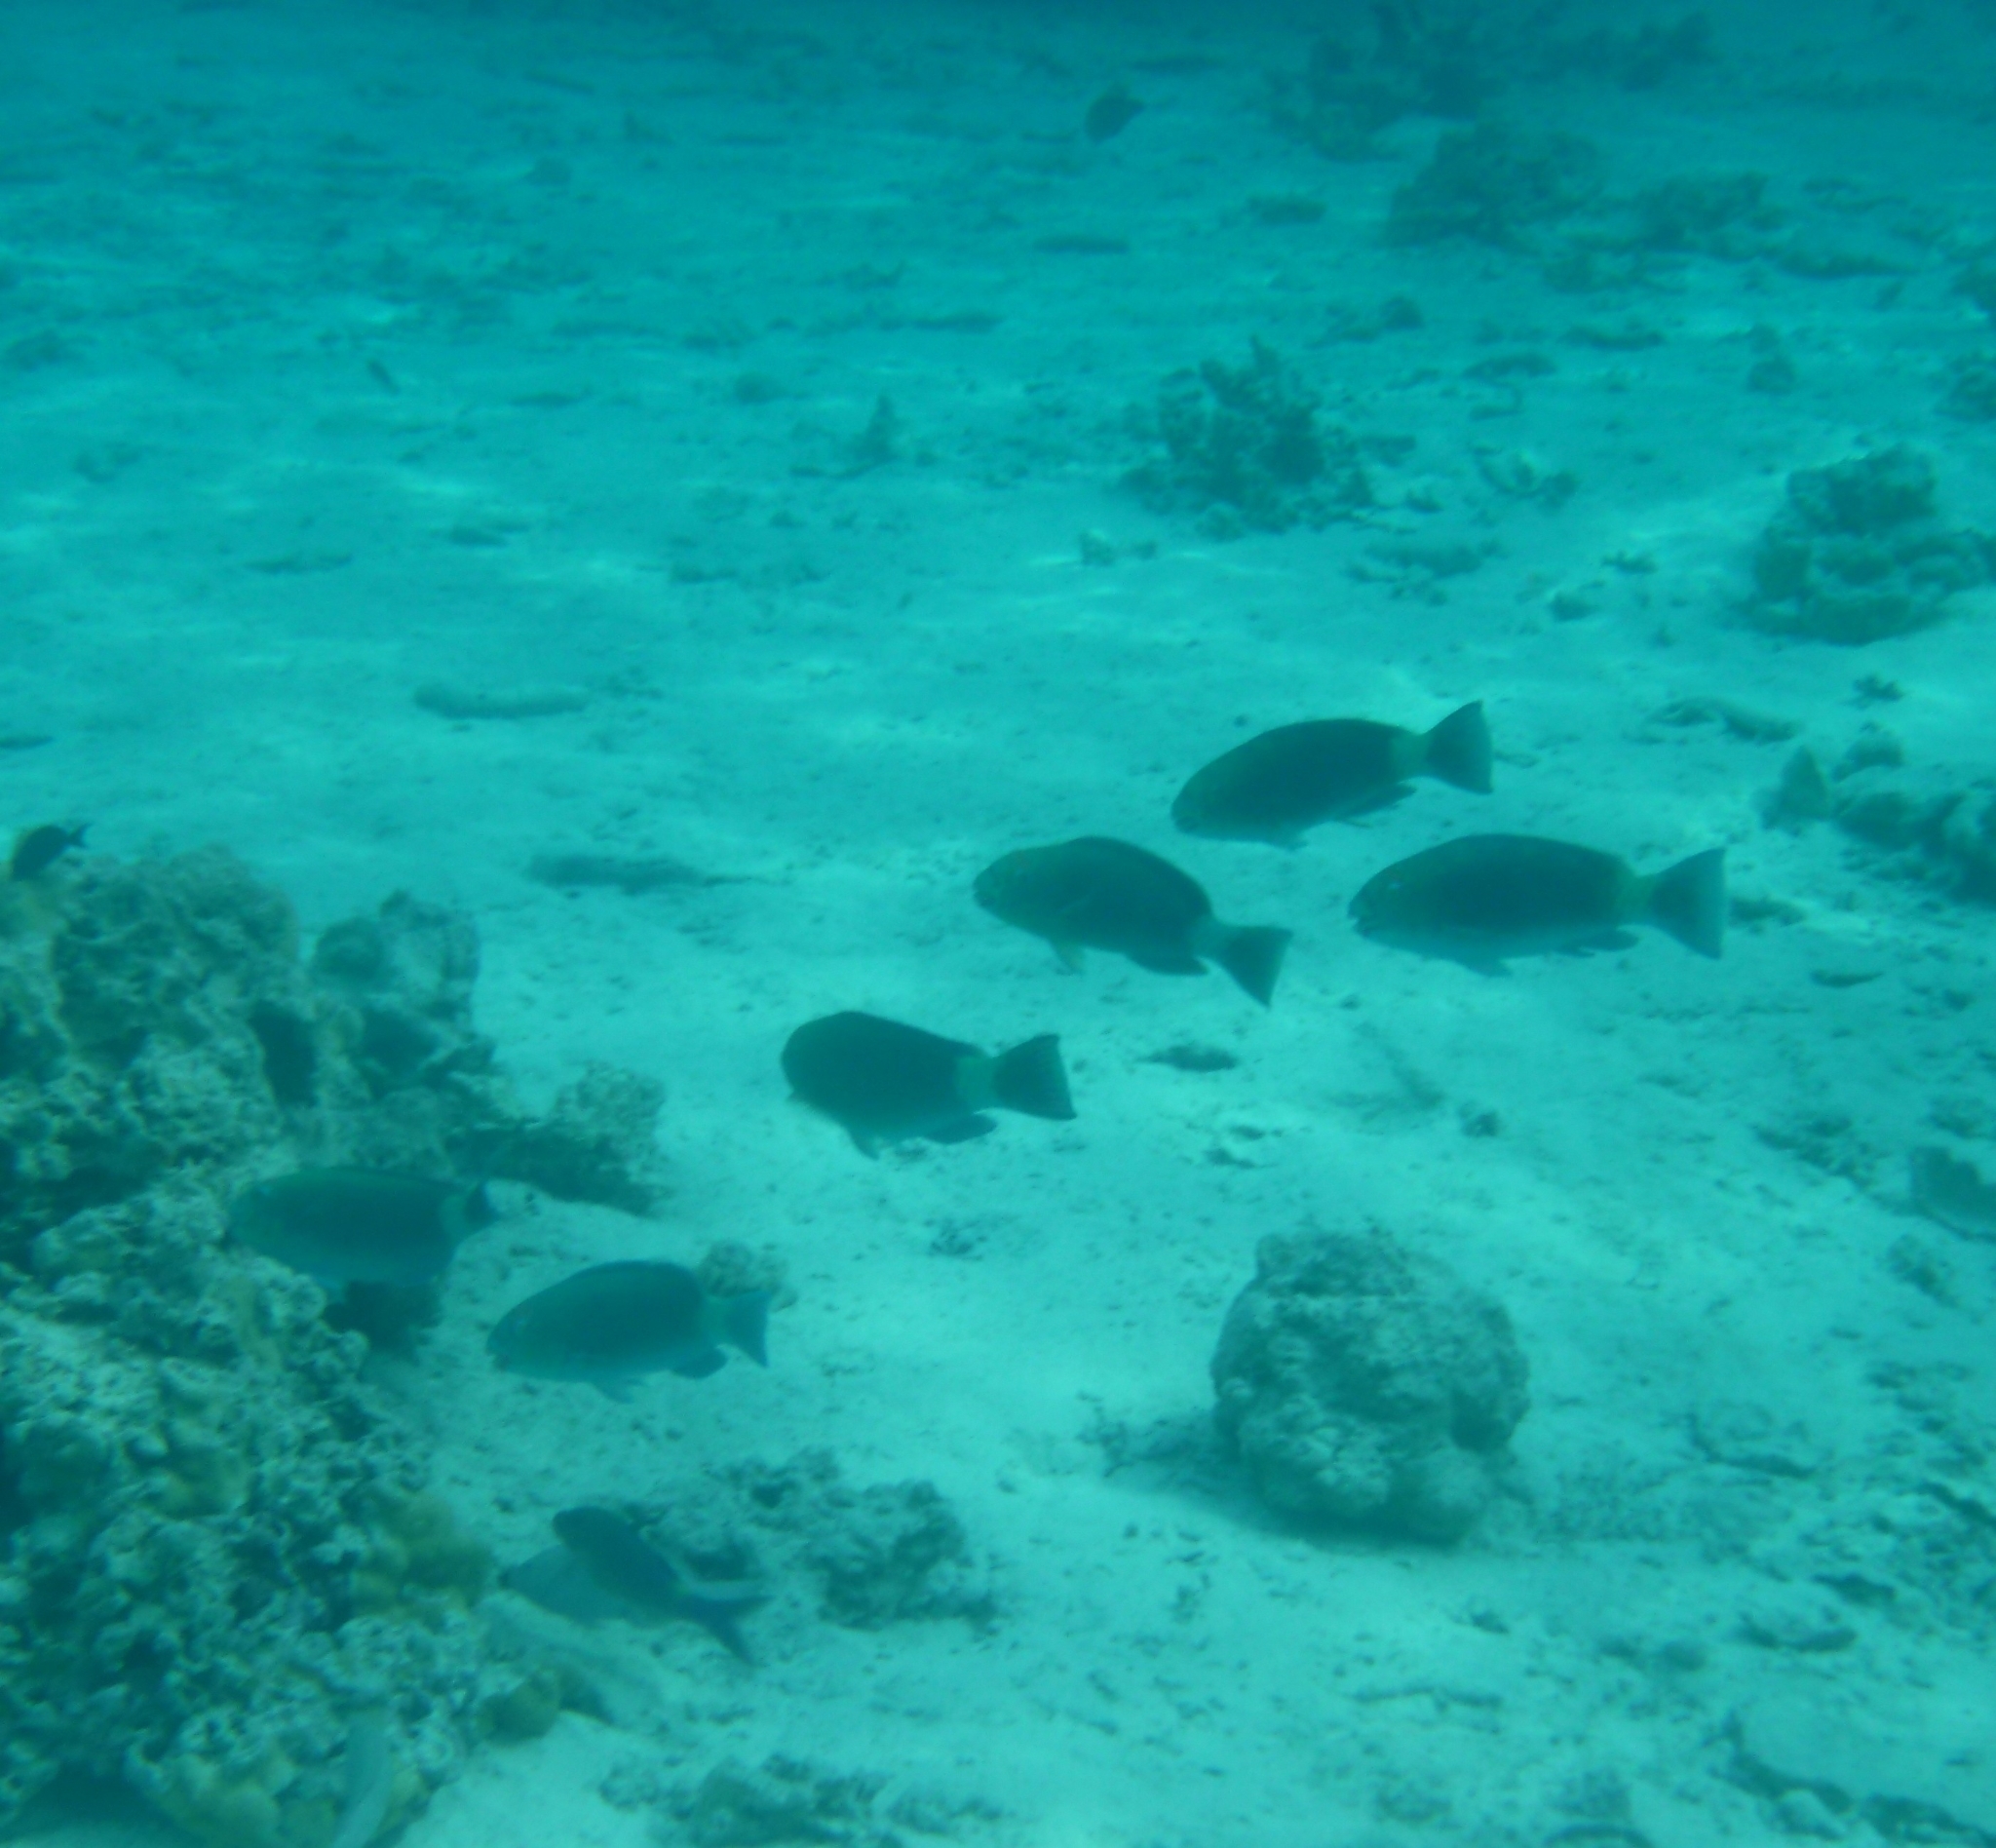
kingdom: Animalia
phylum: Chordata
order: Perciformes
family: Scaridae
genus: Chlorurus
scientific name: Chlorurus frontalis
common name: Reefcrest parrotfish
